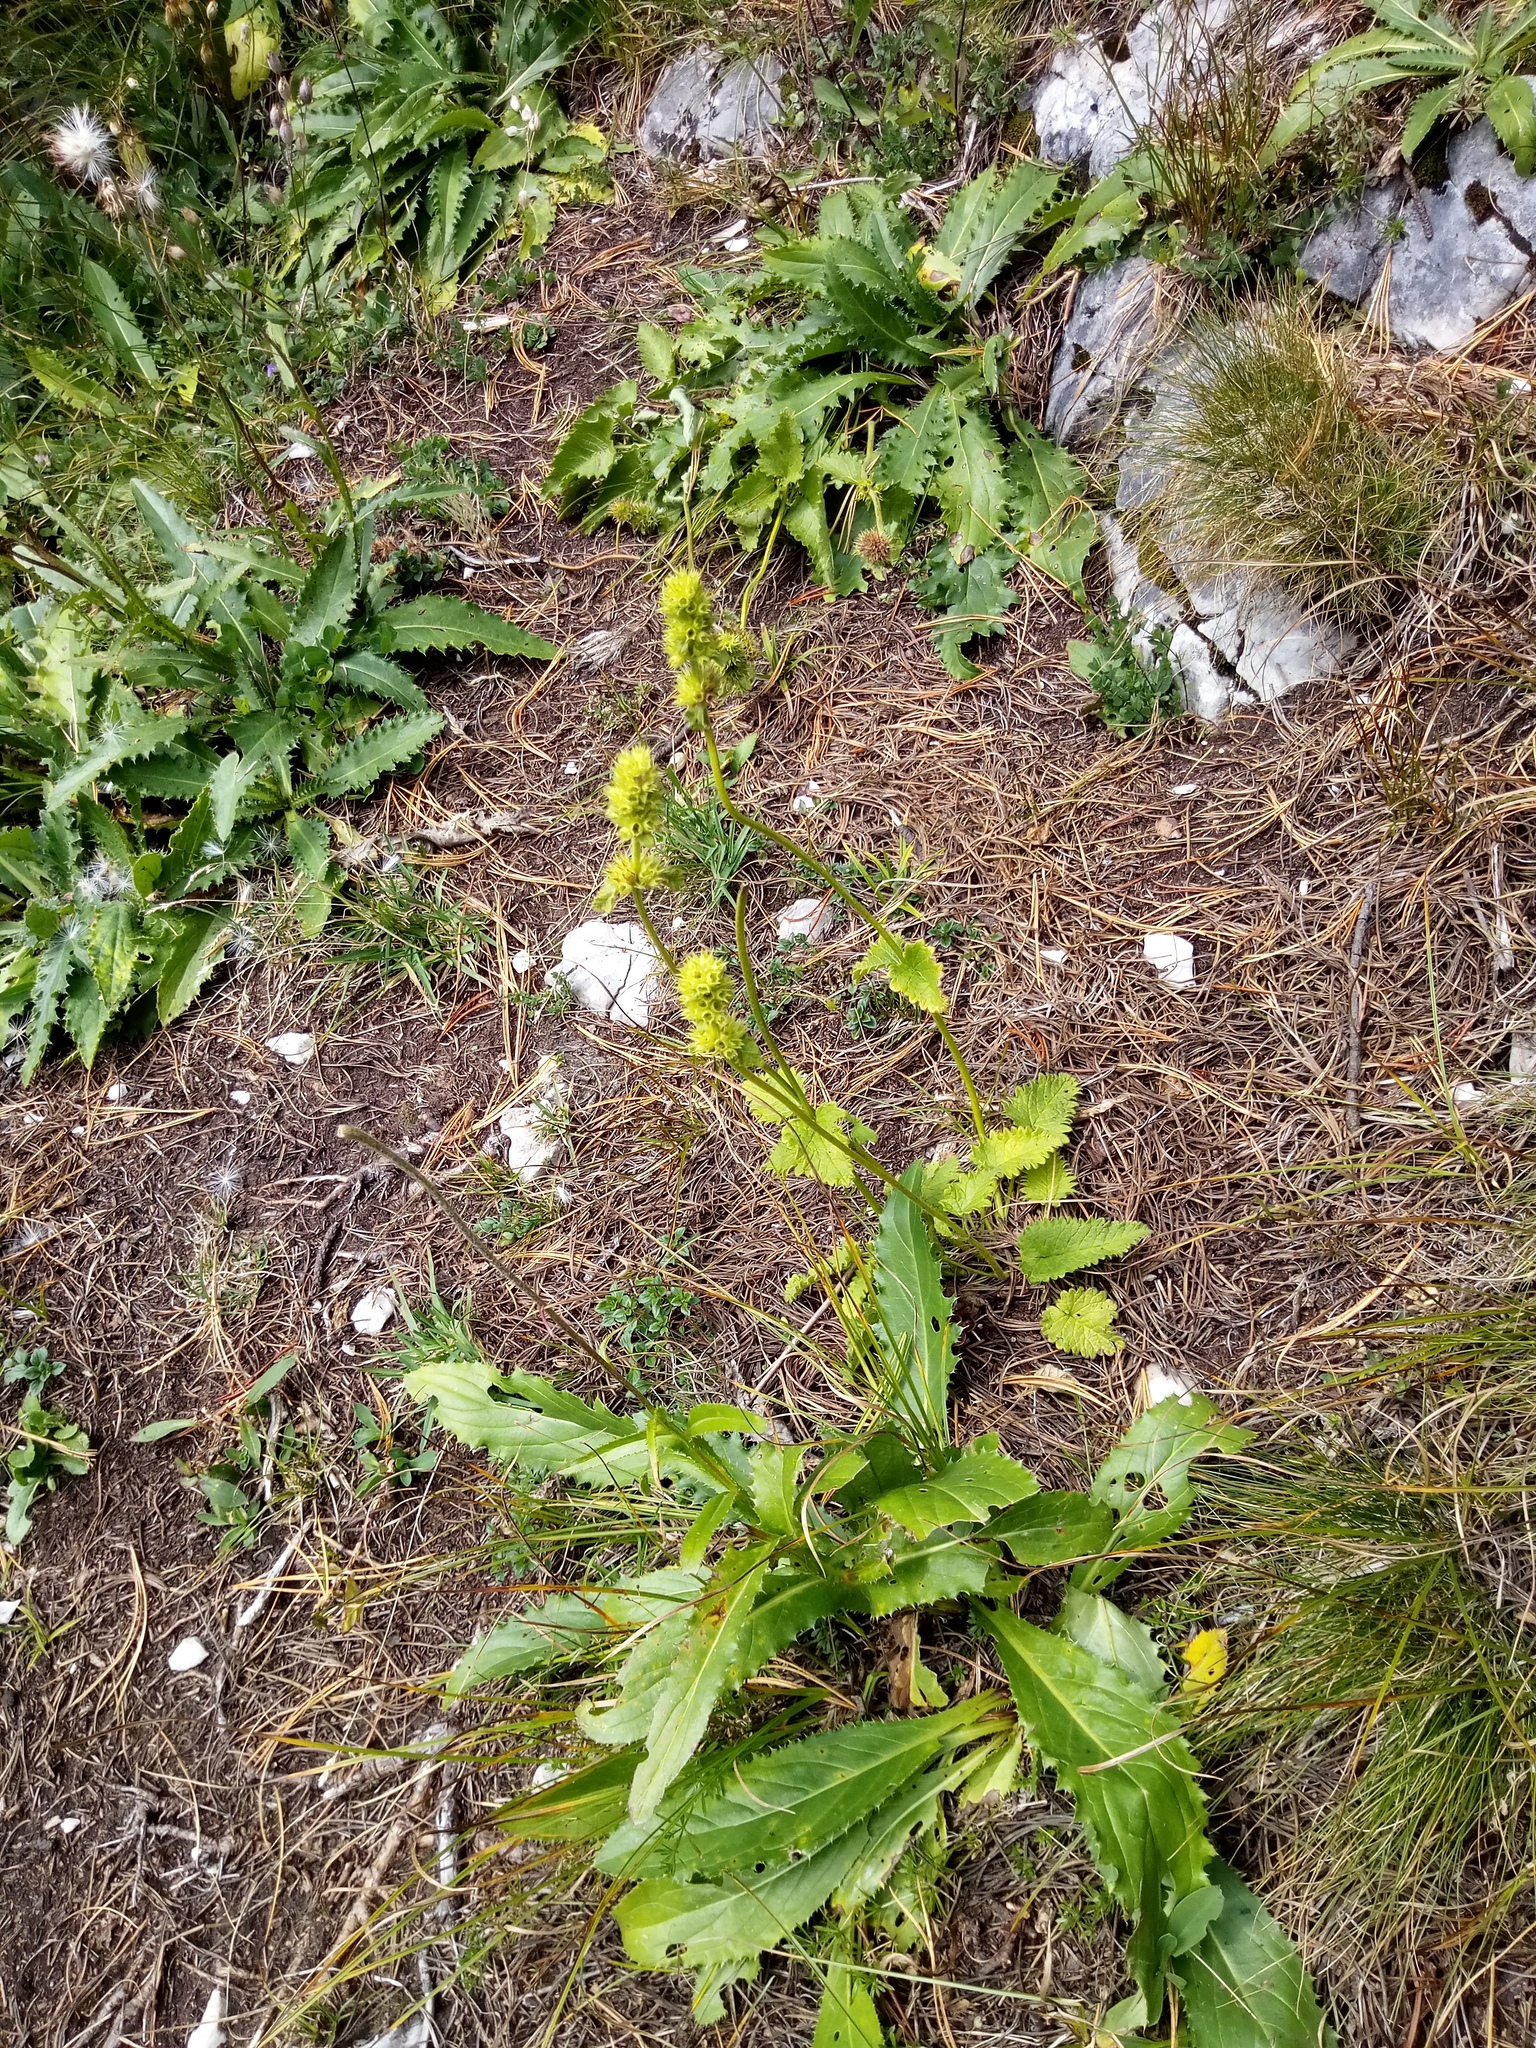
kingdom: Plantae
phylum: Tracheophyta
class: Magnoliopsida
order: Lamiales
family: Lamiaceae
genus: Betonica
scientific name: Betonica alopecuros
